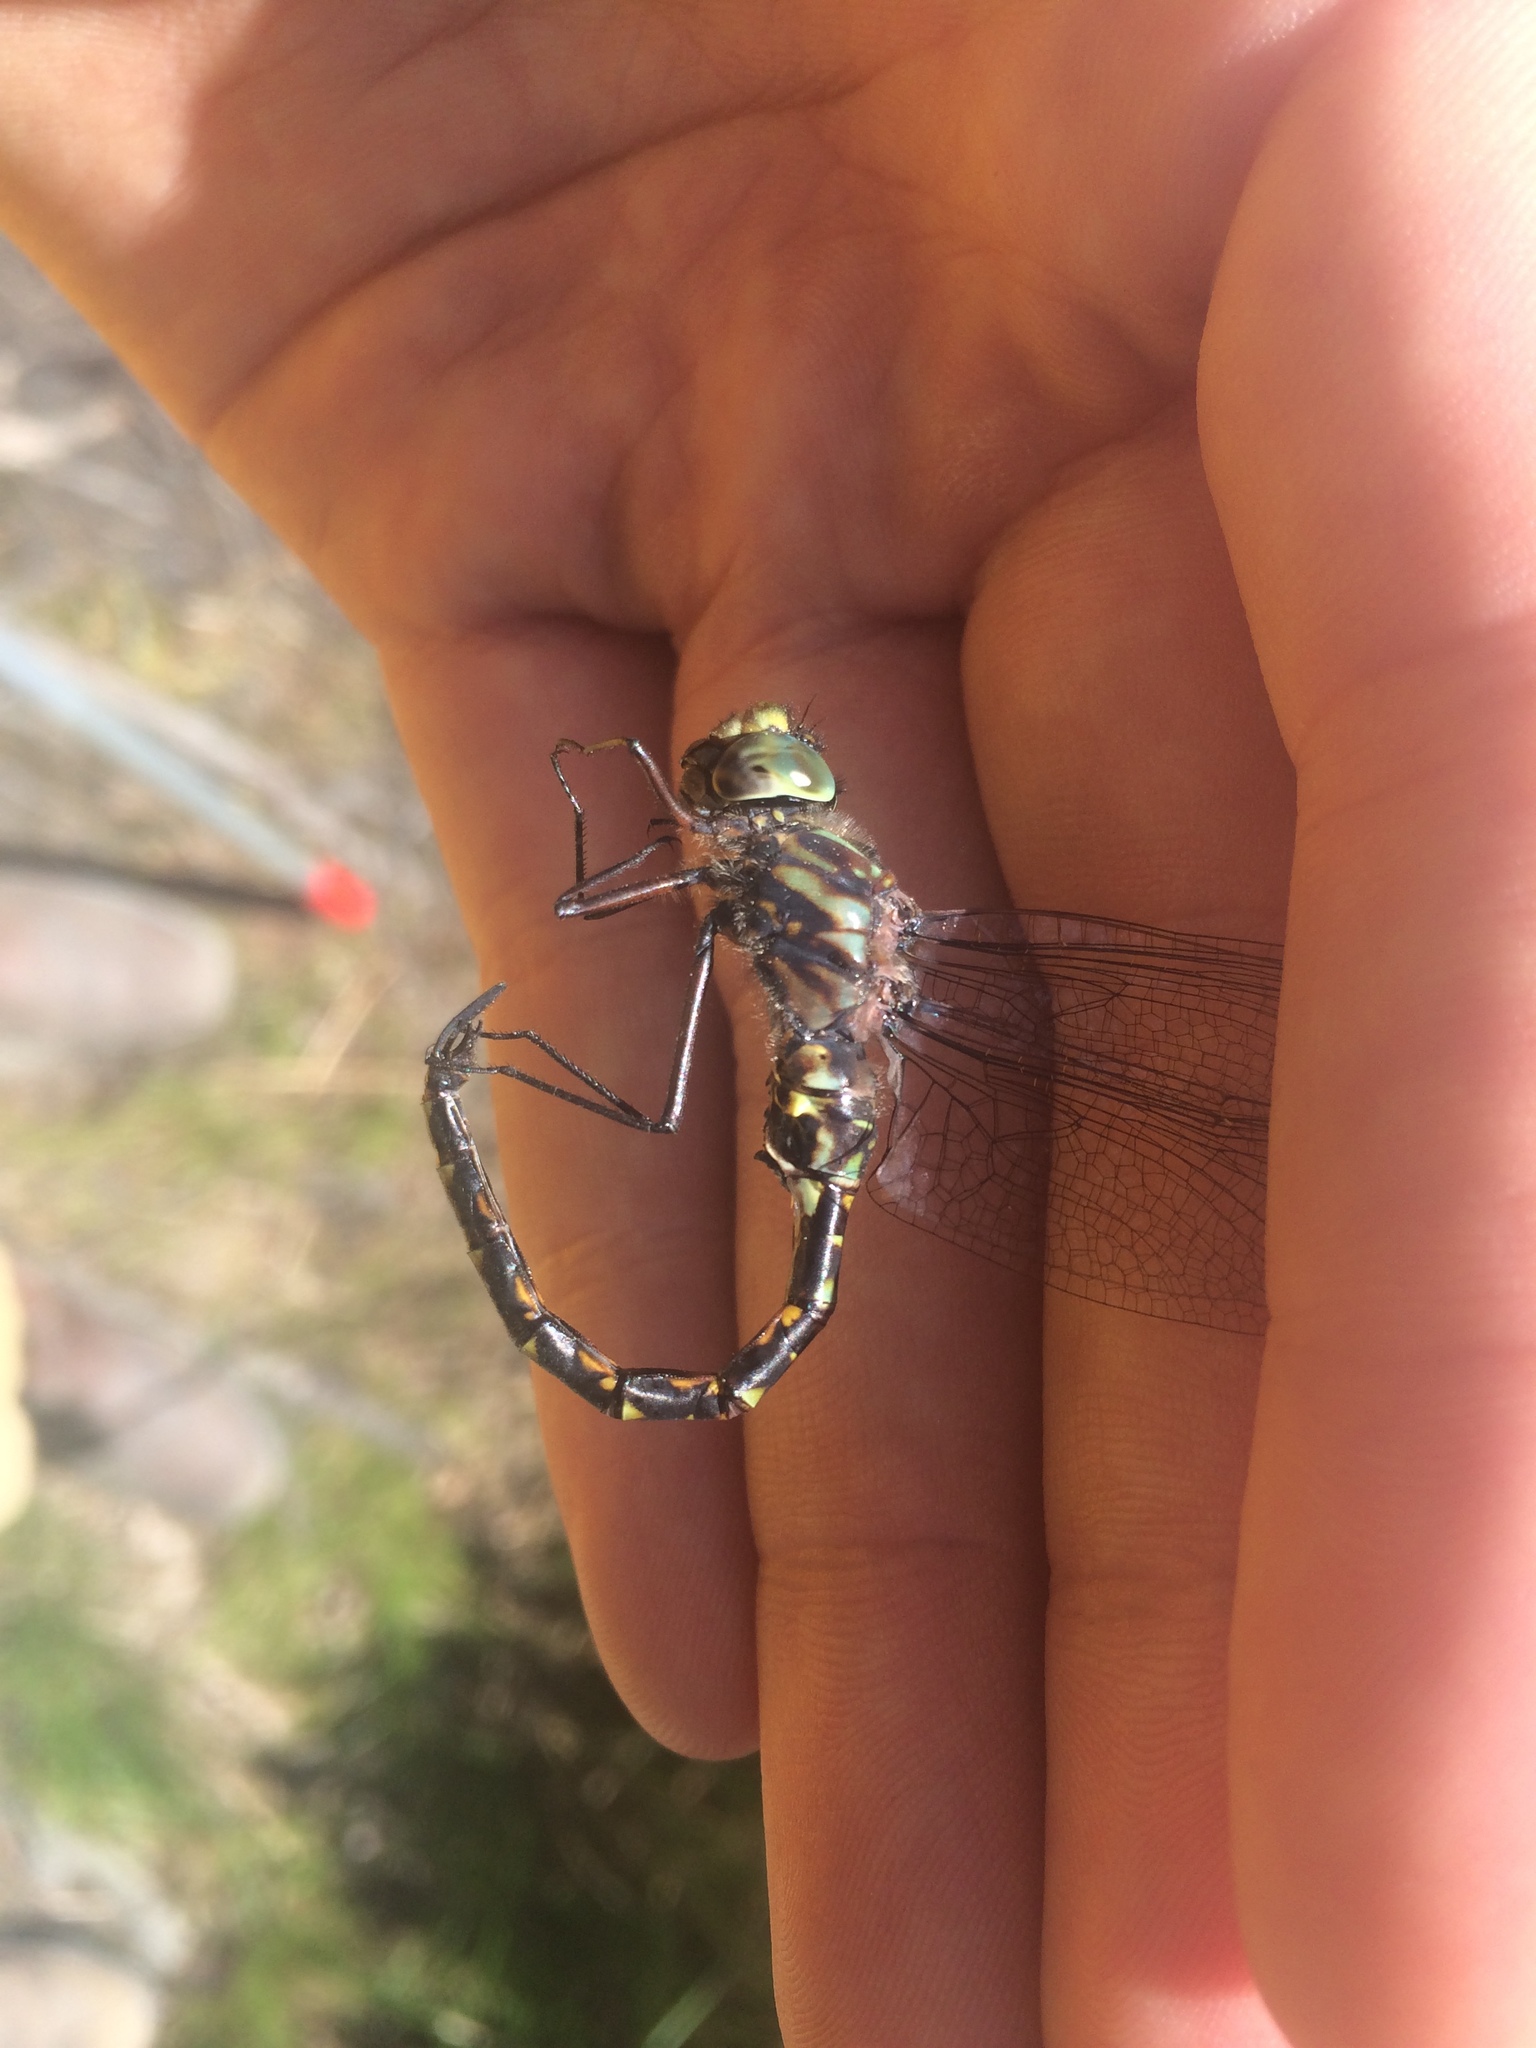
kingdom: Animalia
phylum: Arthropoda
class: Insecta
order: Odonata
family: Aeshnidae
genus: Gomphaeschna
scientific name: Gomphaeschna furcillata
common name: Harlequin darner
